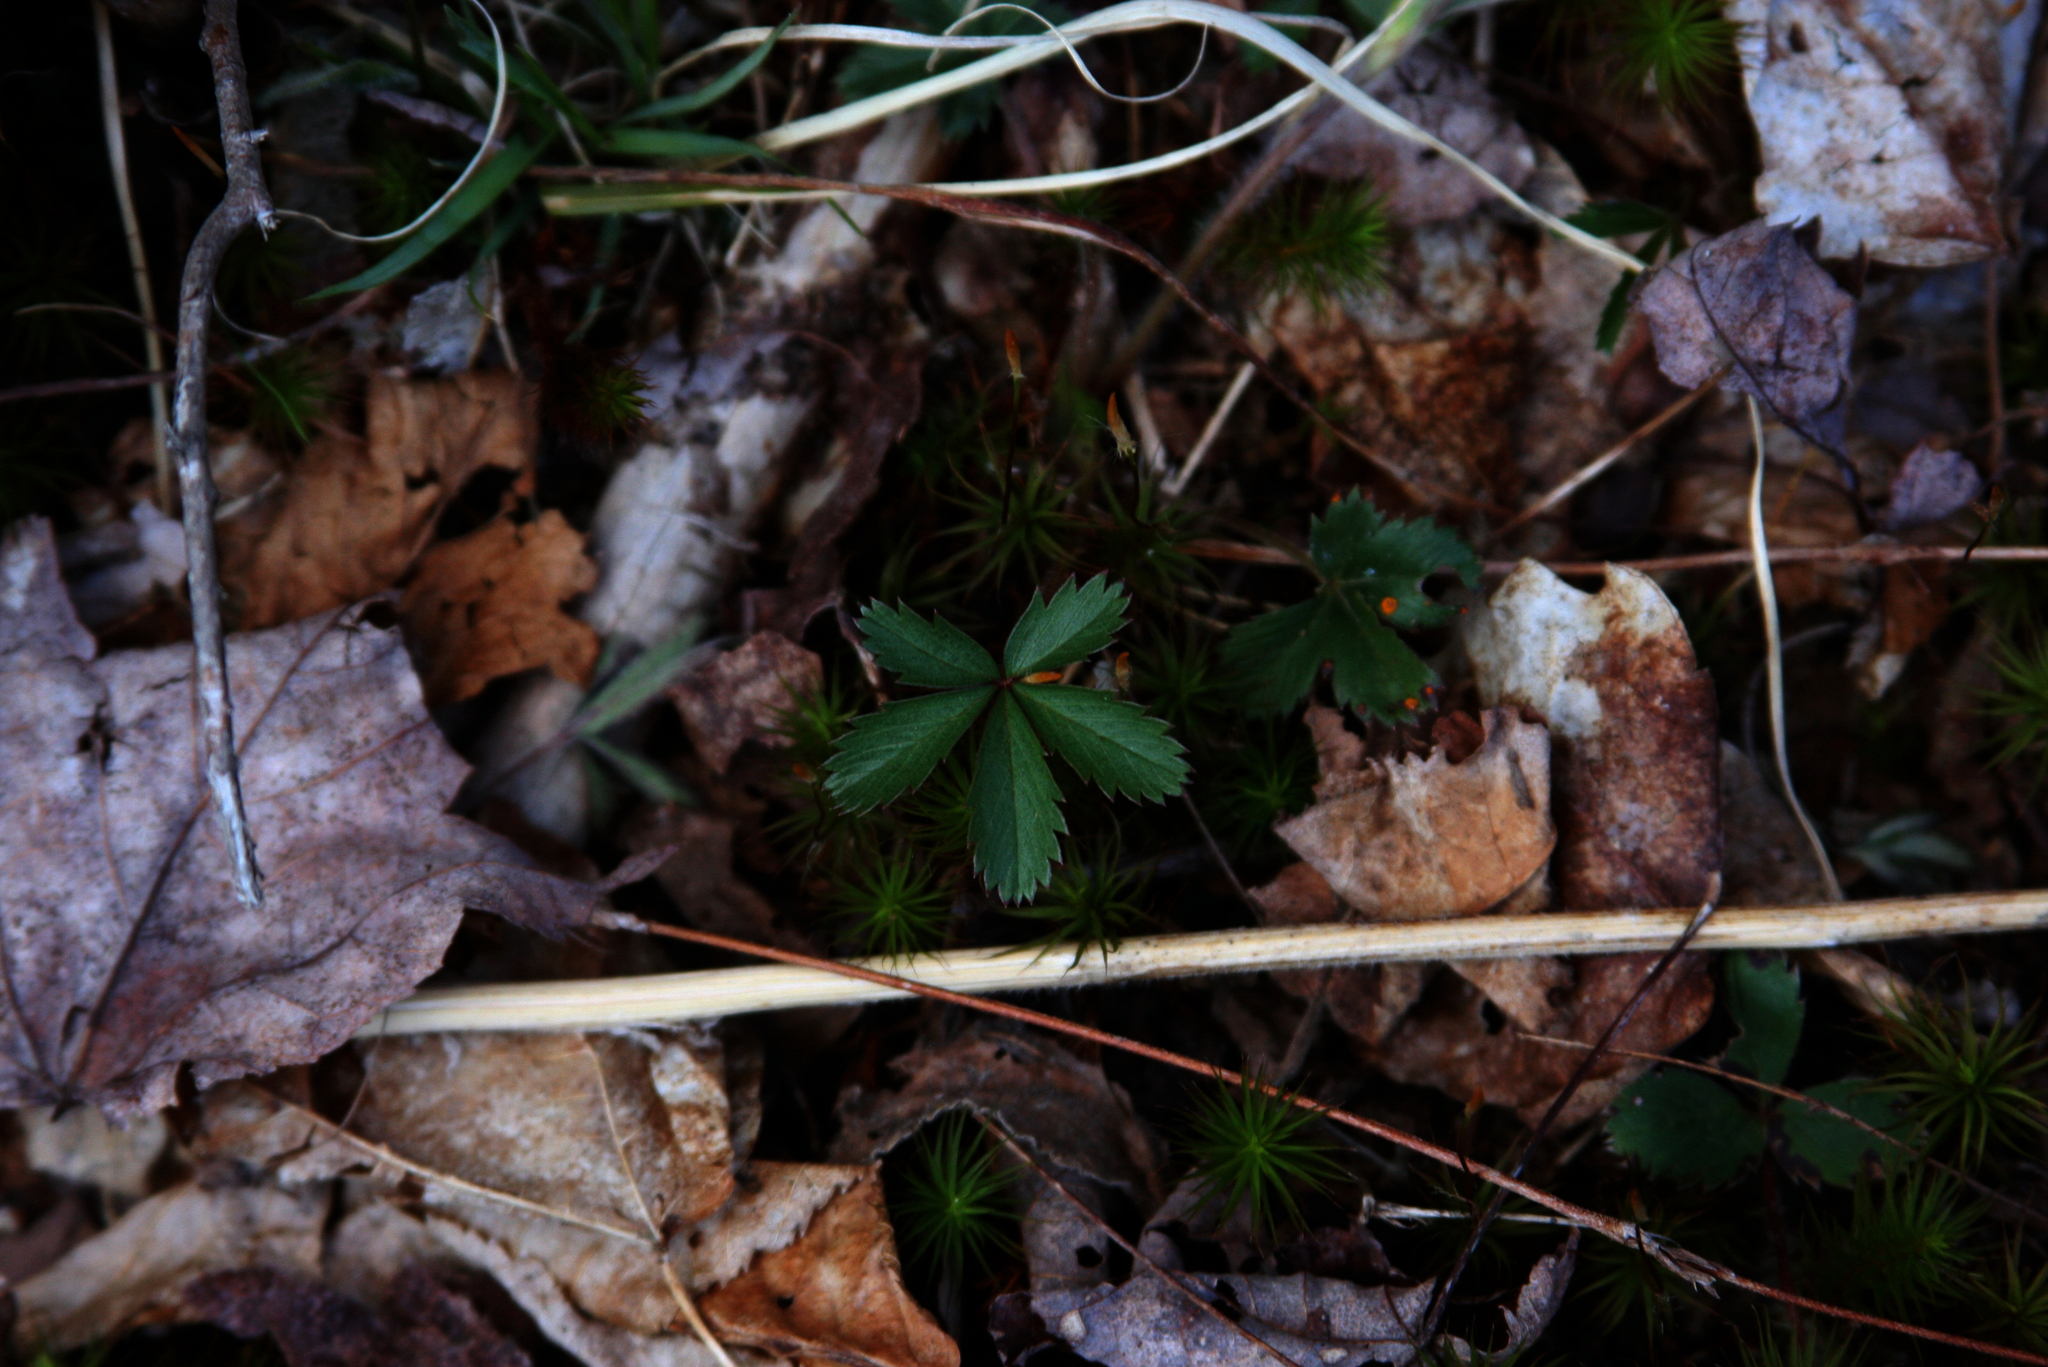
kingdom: Plantae
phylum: Tracheophyta
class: Magnoliopsida
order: Rosales
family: Rosaceae
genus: Potentilla
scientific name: Potentilla canadensis
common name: Canada cinquefoil
